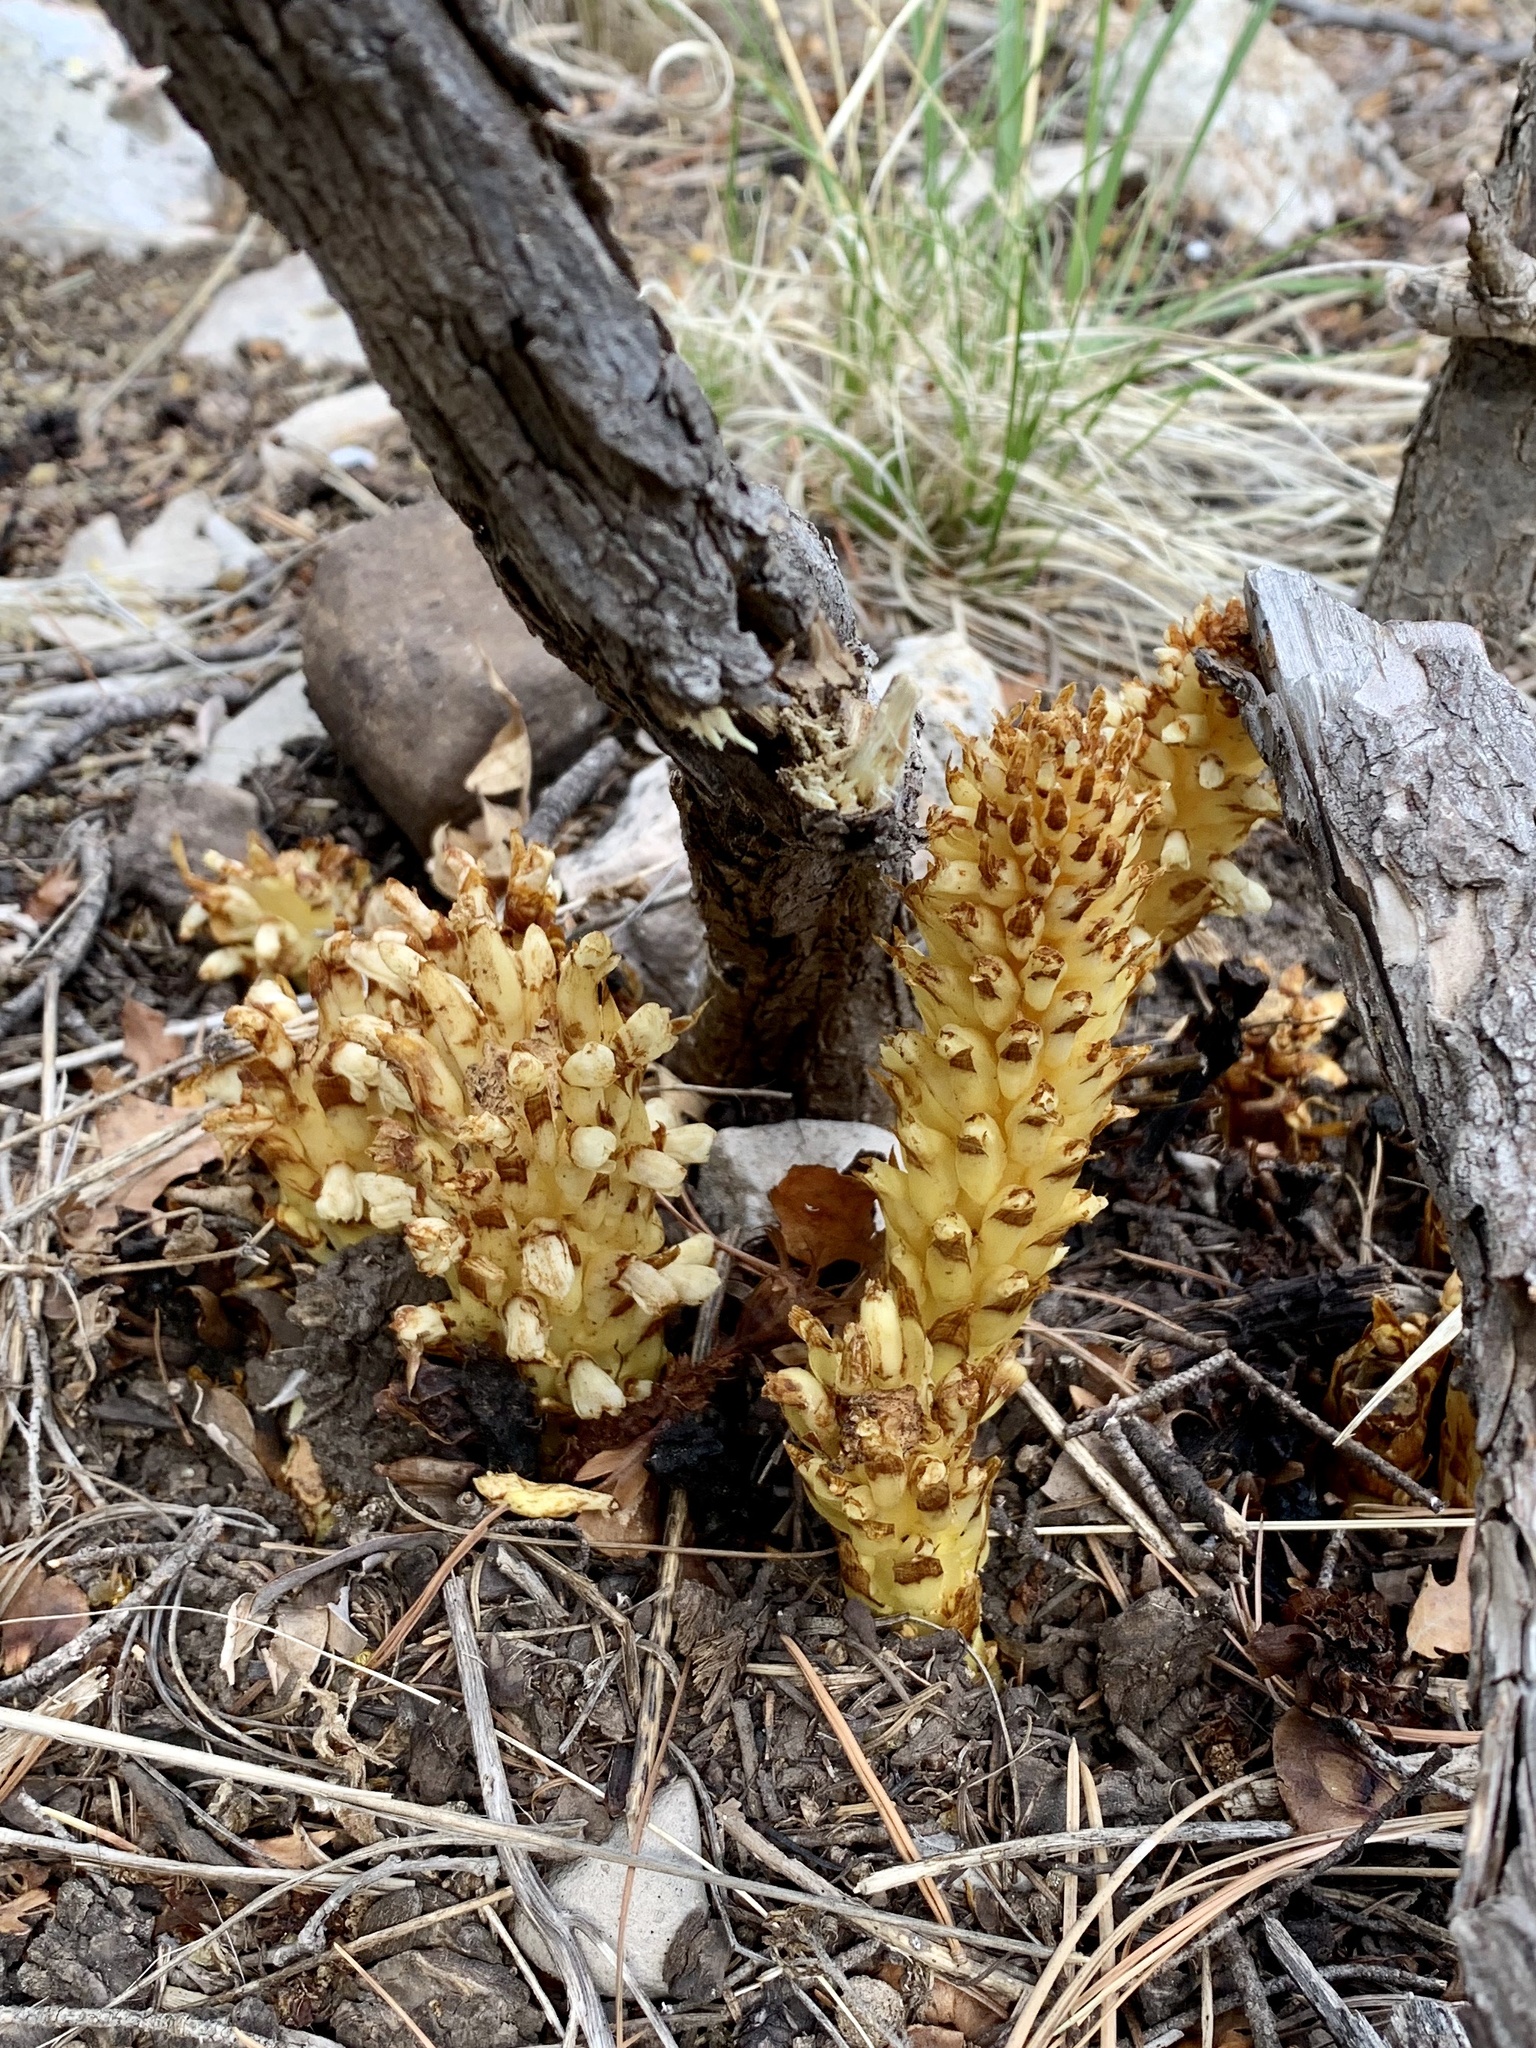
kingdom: Plantae
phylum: Tracheophyta
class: Magnoliopsida
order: Lamiales
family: Orobanchaceae
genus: Conopholis
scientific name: Conopholis alpina
